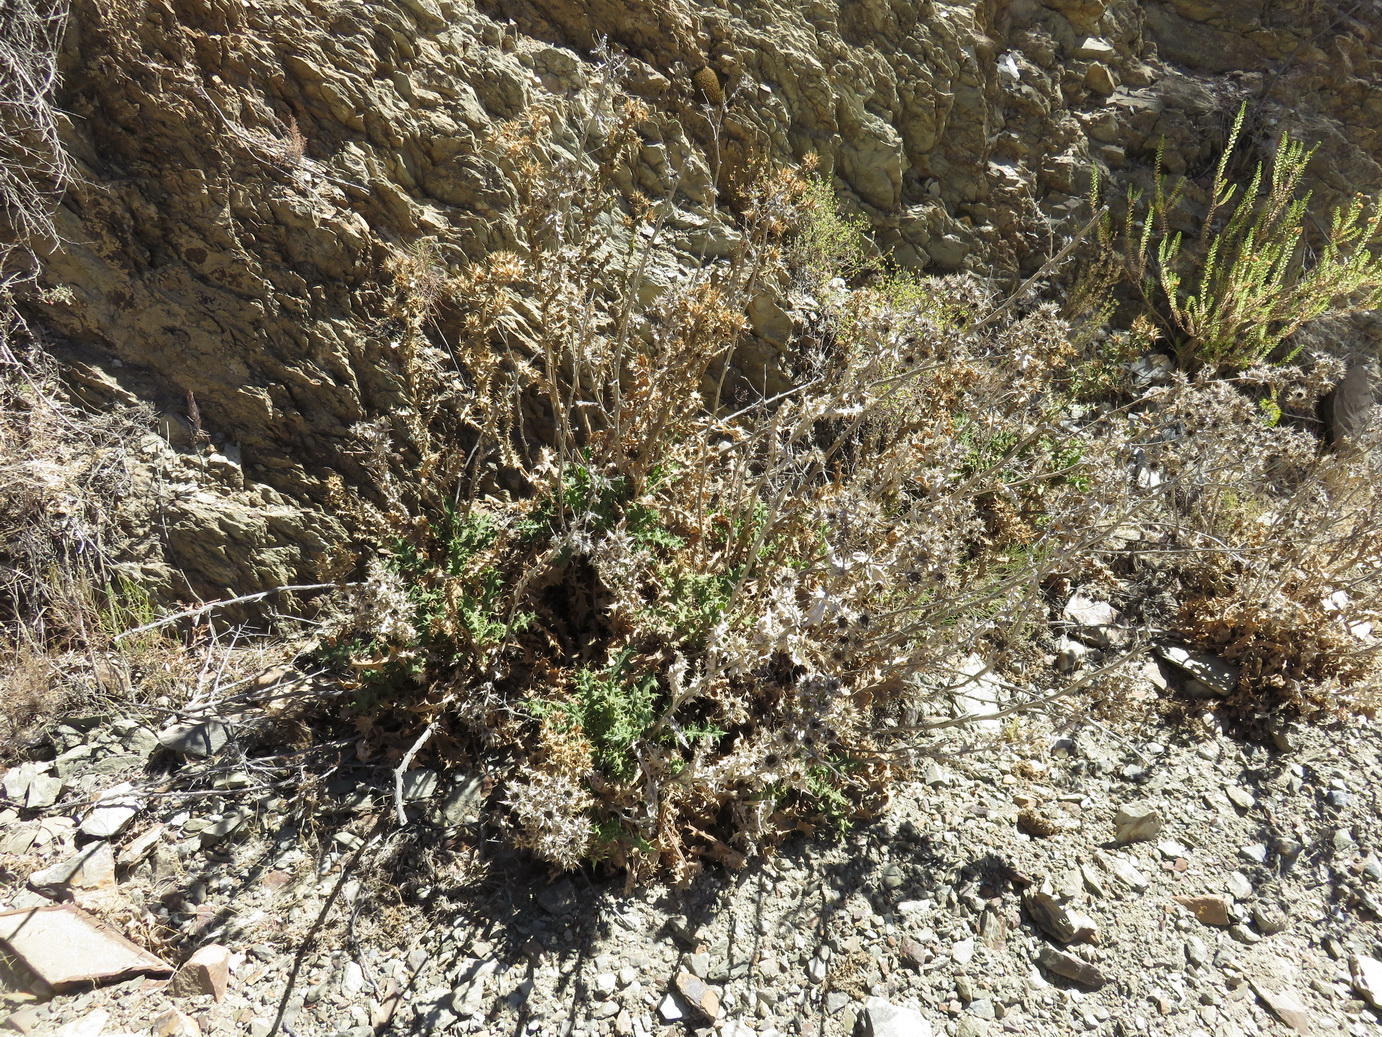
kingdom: Plantae
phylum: Tracheophyta
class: Magnoliopsida
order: Asterales
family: Asteraceae
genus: Berkheya
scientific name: Berkheya onobromoides
